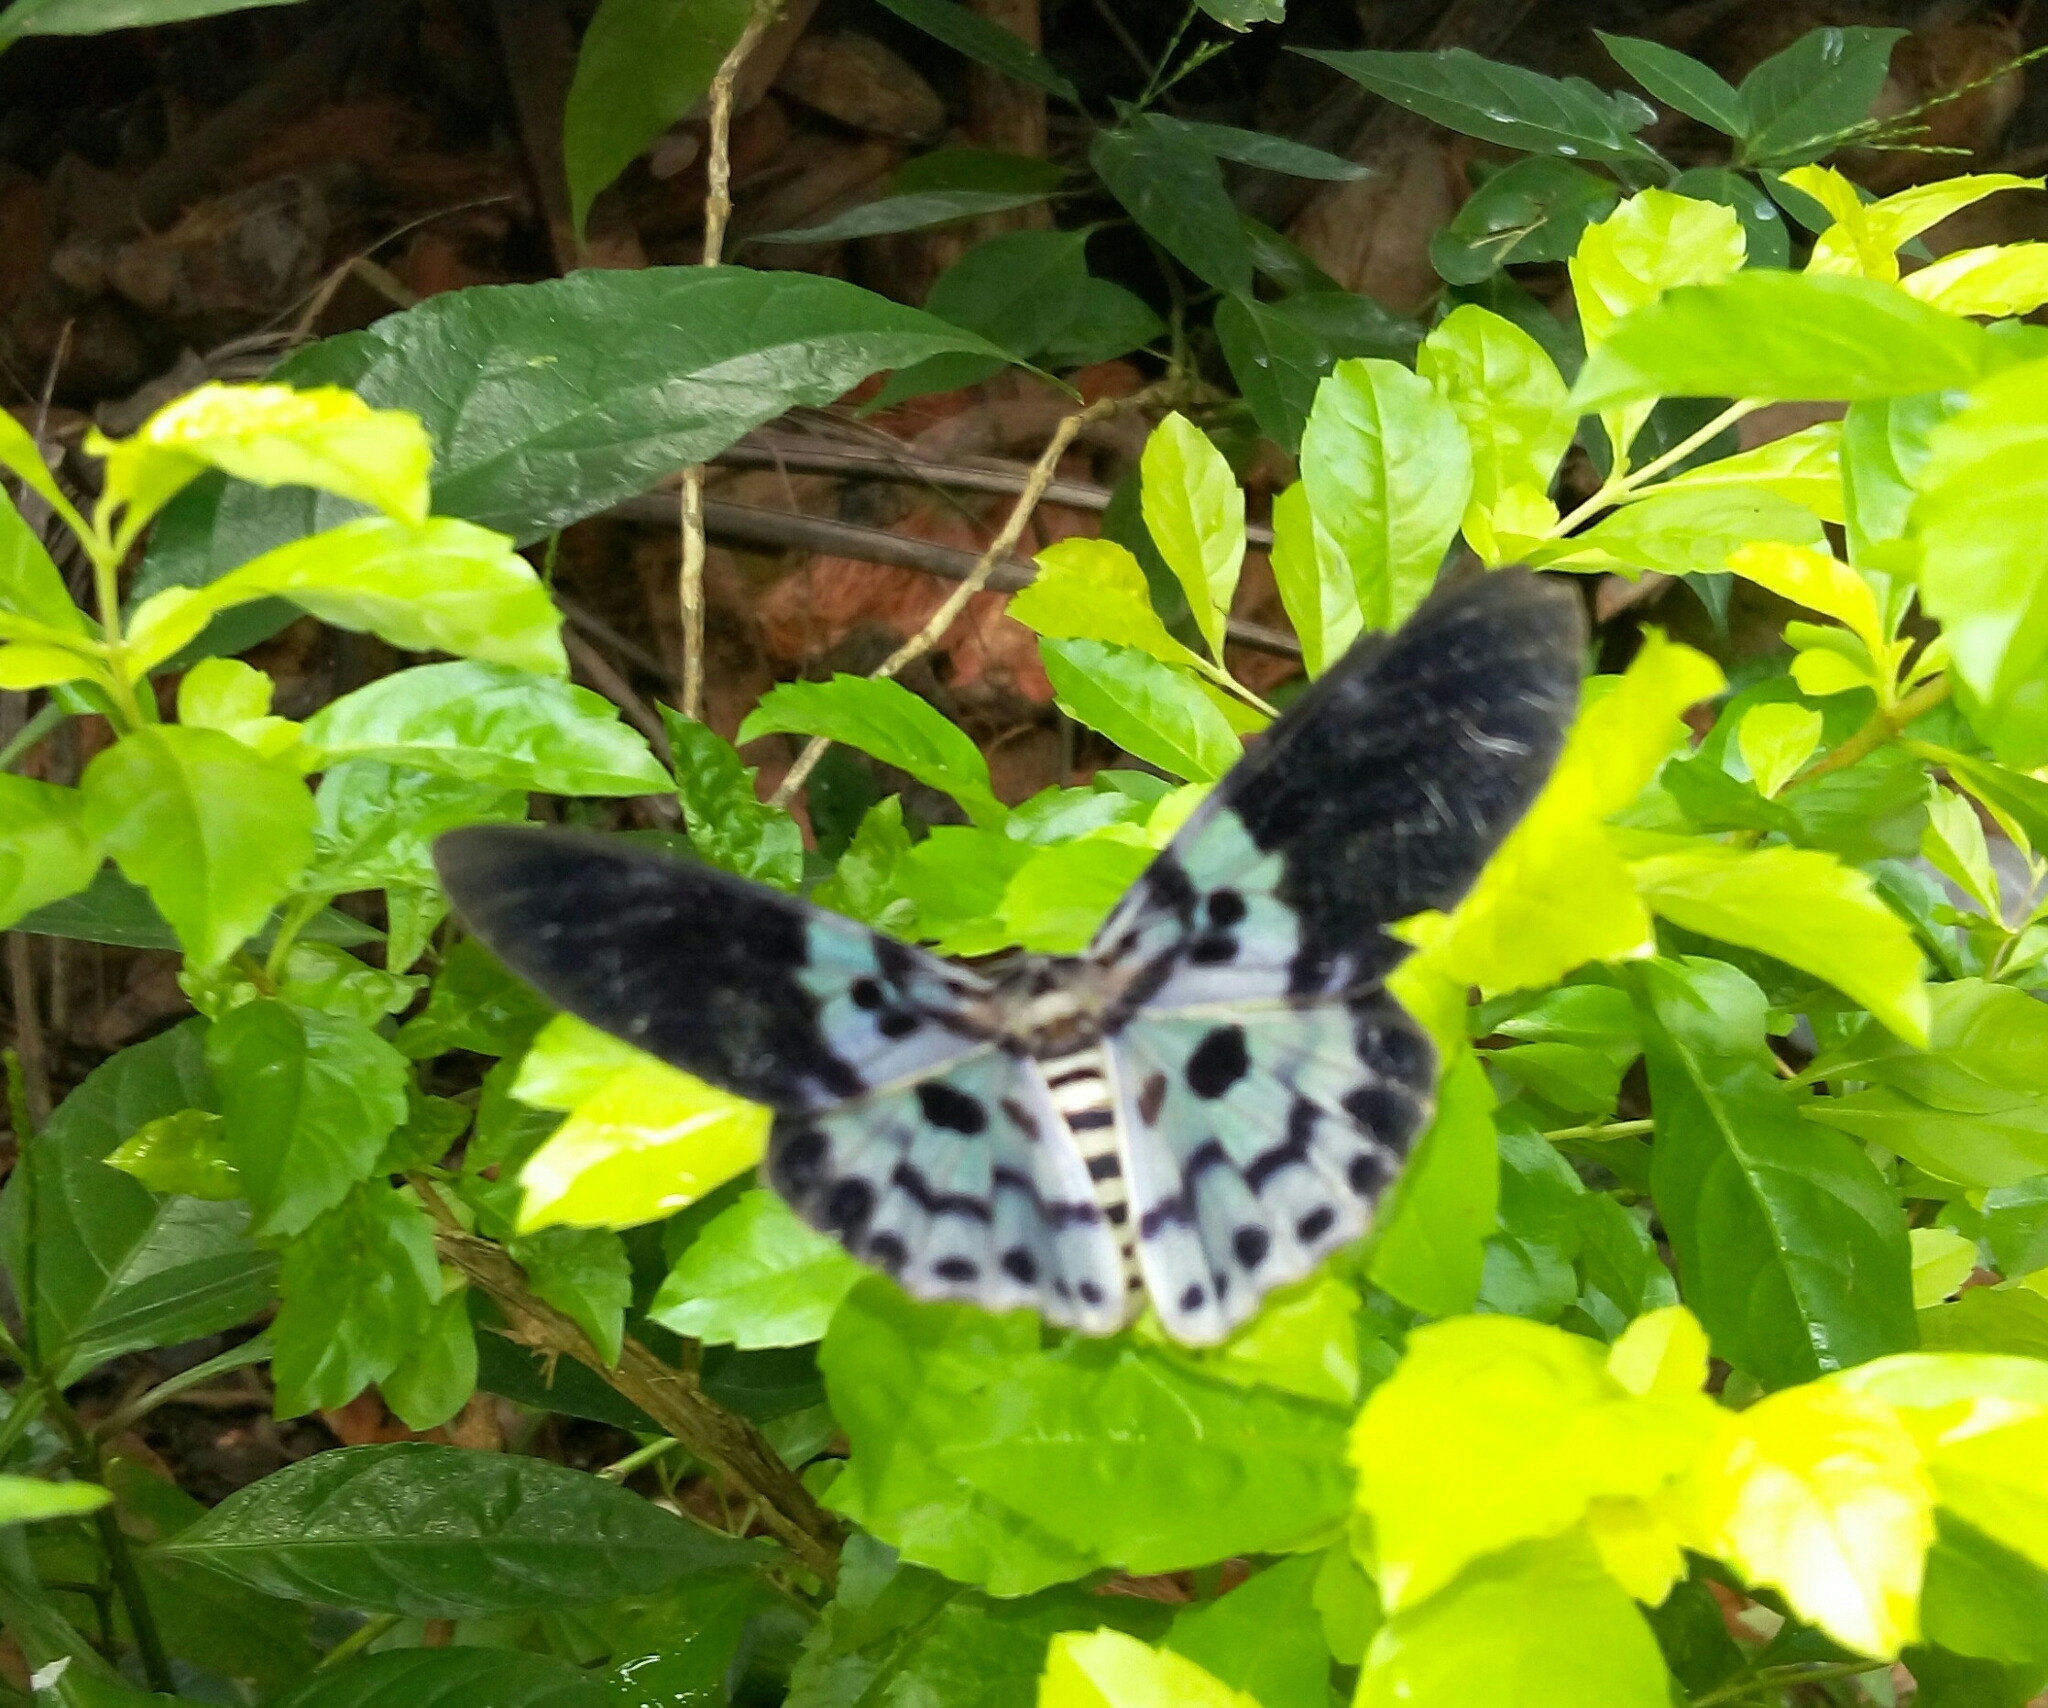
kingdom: Animalia
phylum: Arthropoda
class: Insecta
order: Lepidoptera
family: Geometridae
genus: Dysphania
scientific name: Dysphania percota
